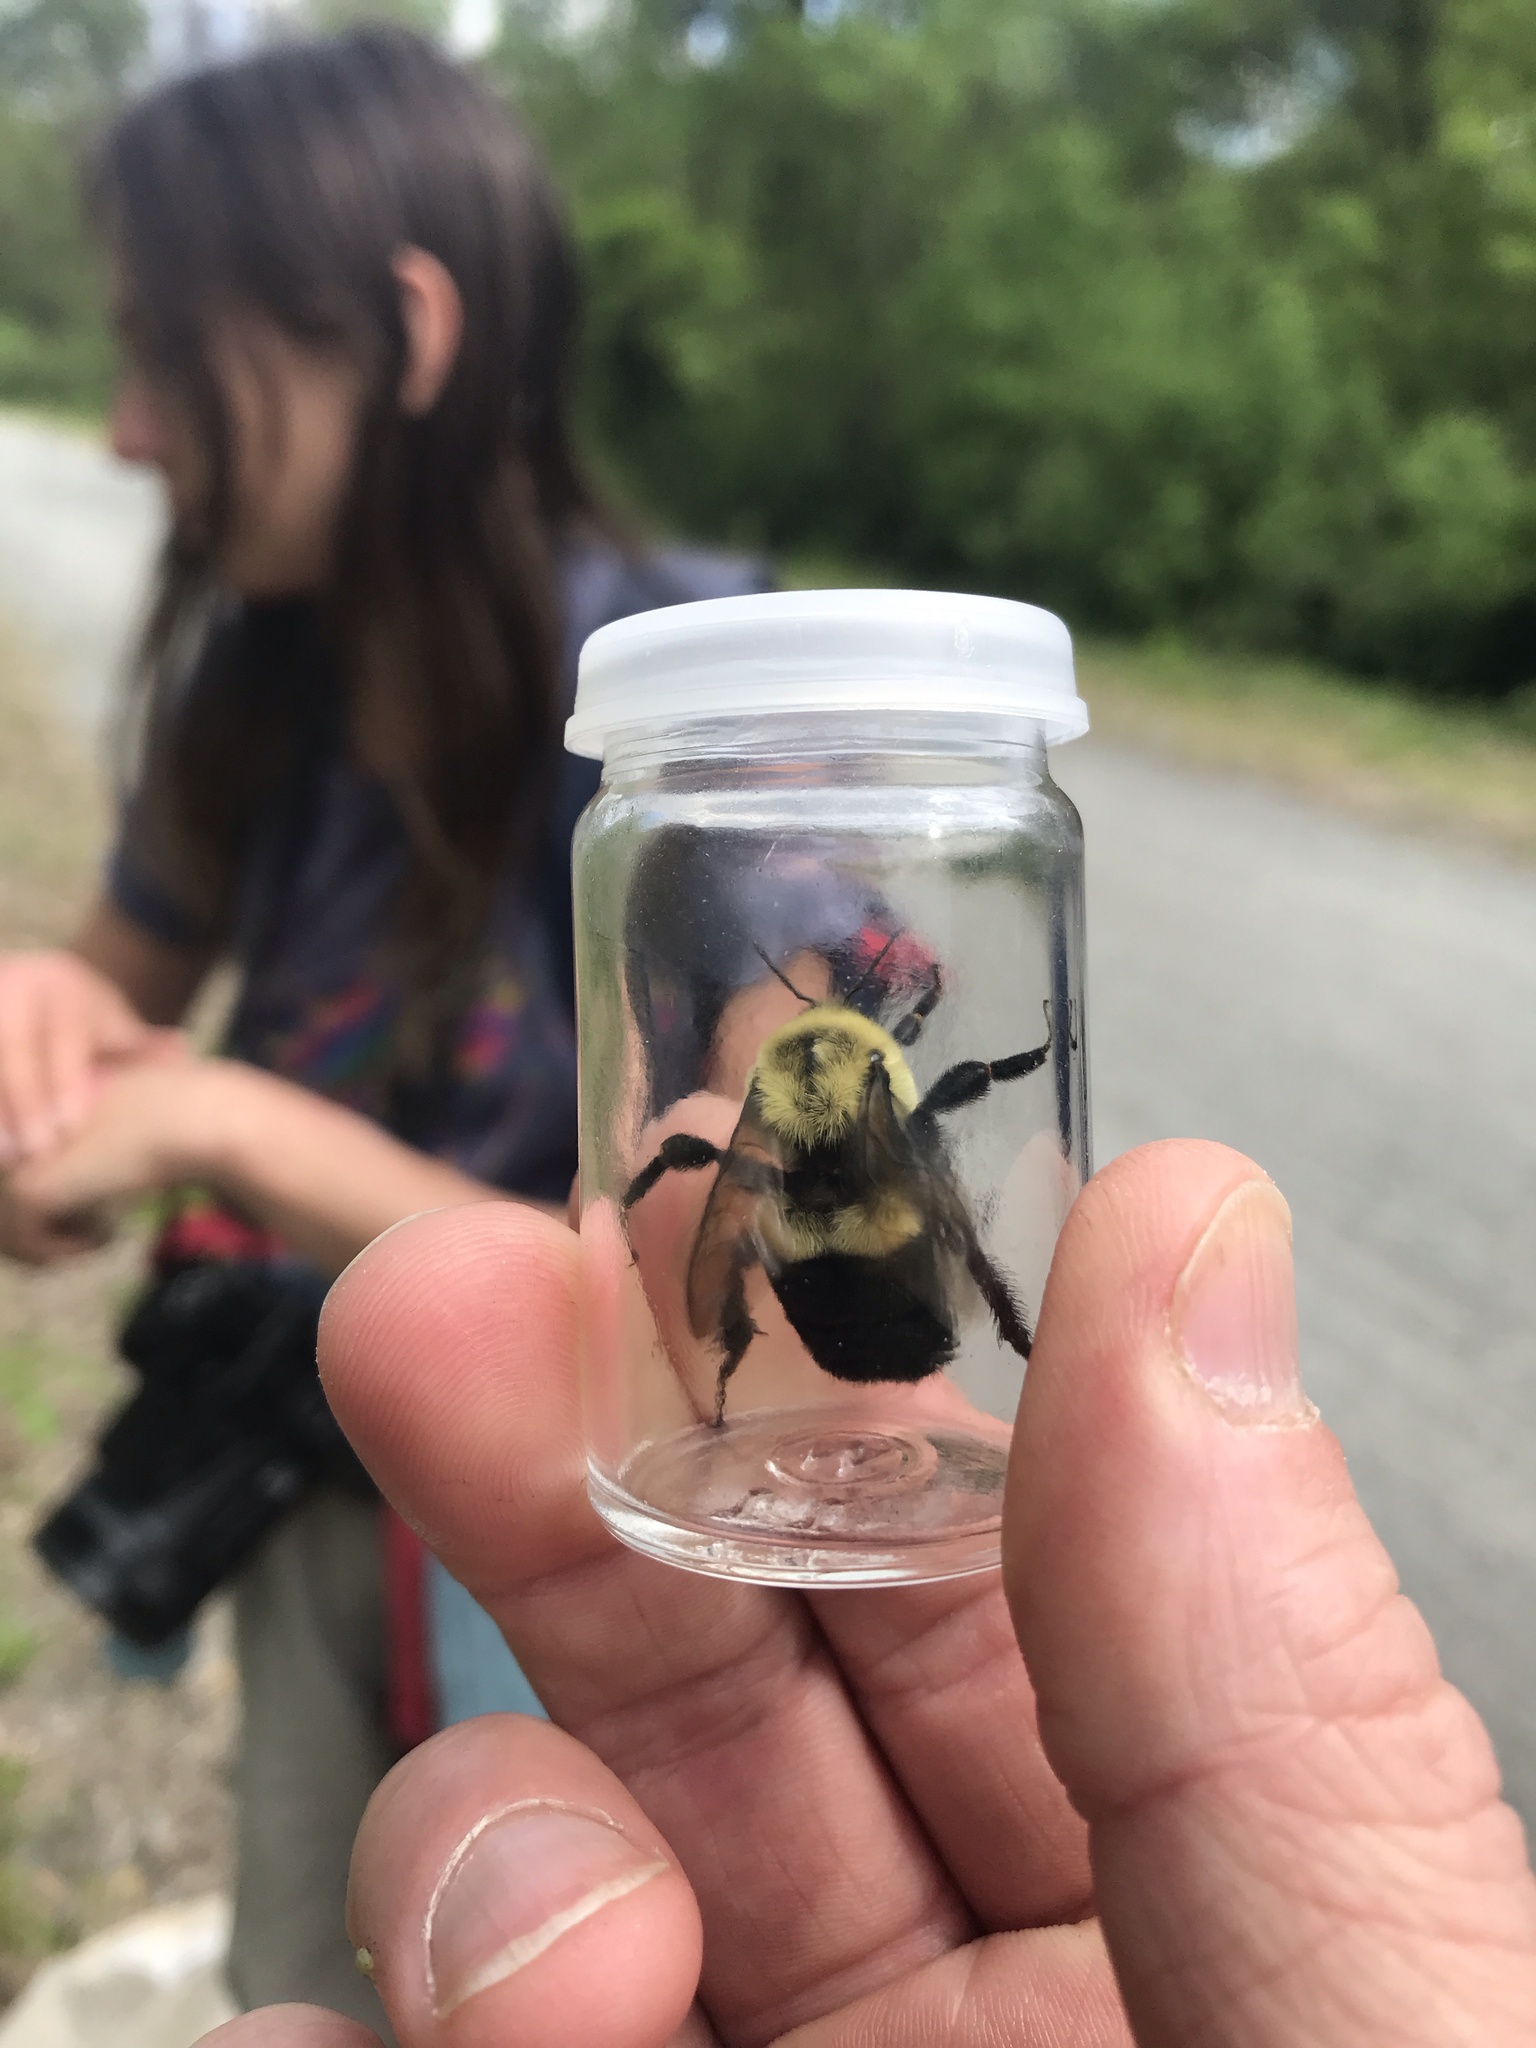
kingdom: Animalia
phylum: Arthropoda
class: Insecta
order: Hymenoptera
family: Apidae
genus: Bombus
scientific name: Bombus impatiens
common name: Common eastern bumble bee
